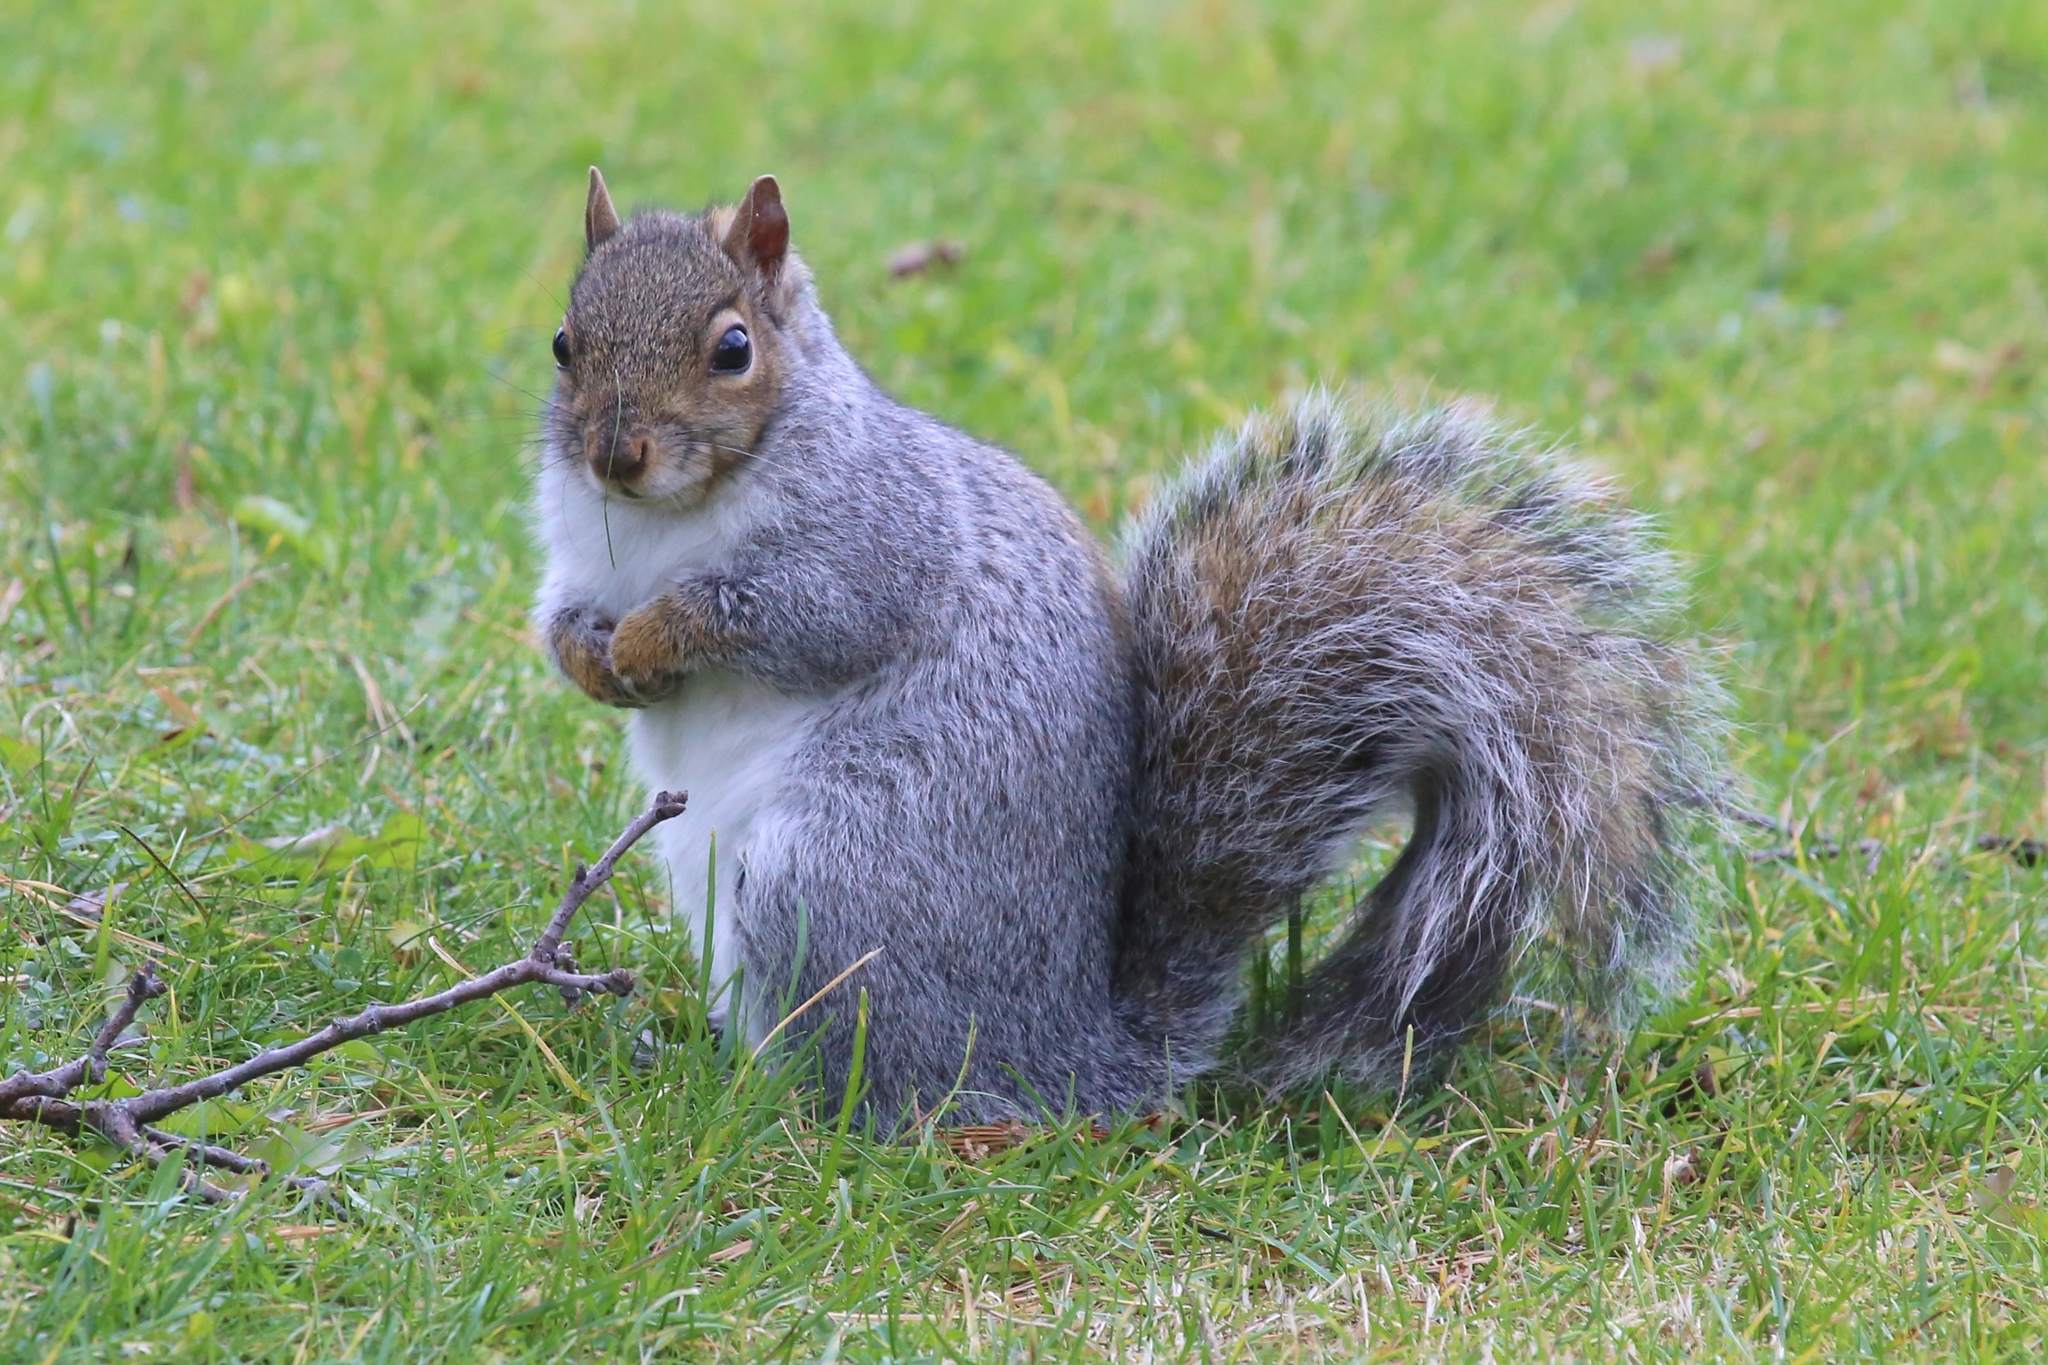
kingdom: Animalia
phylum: Chordata
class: Mammalia
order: Rodentia
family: Sciuridae
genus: Sciurus
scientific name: Sciurus carolinensis
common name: Eastern gray squirrel
